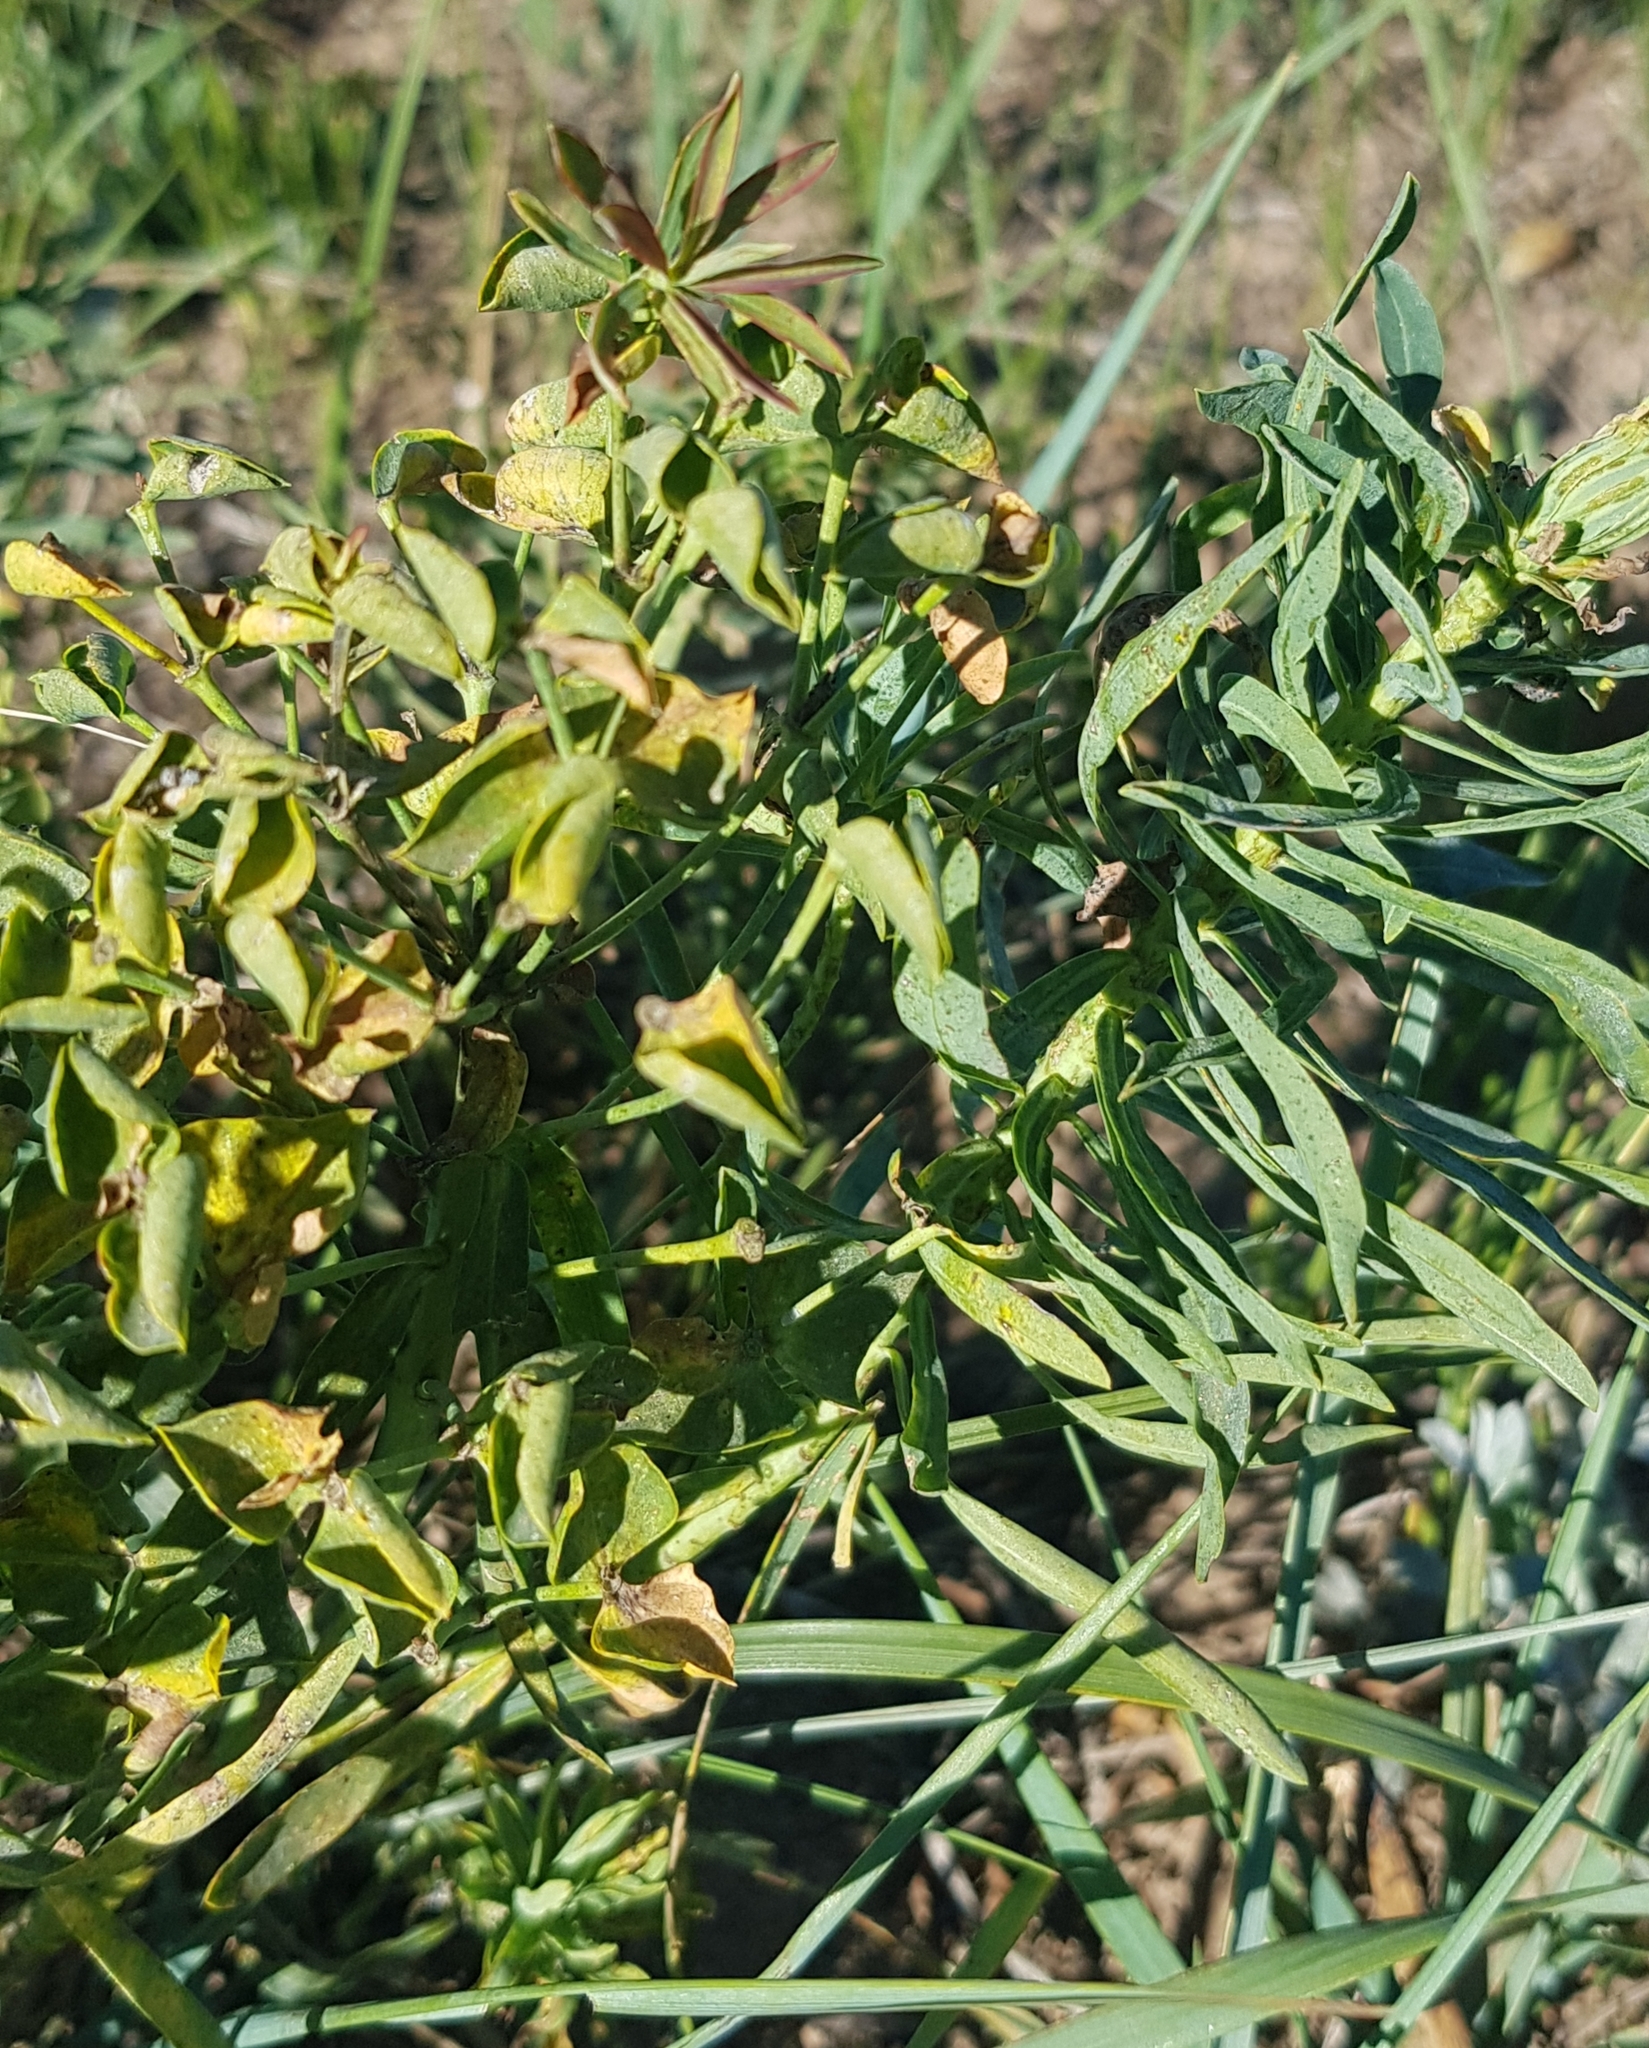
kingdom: Plantae
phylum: Tracheophyta
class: Magnoliopsida
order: Malpighiales
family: Euphorbiaceae
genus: Euphorbia
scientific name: Euphorbia esula
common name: Leafy spurge
